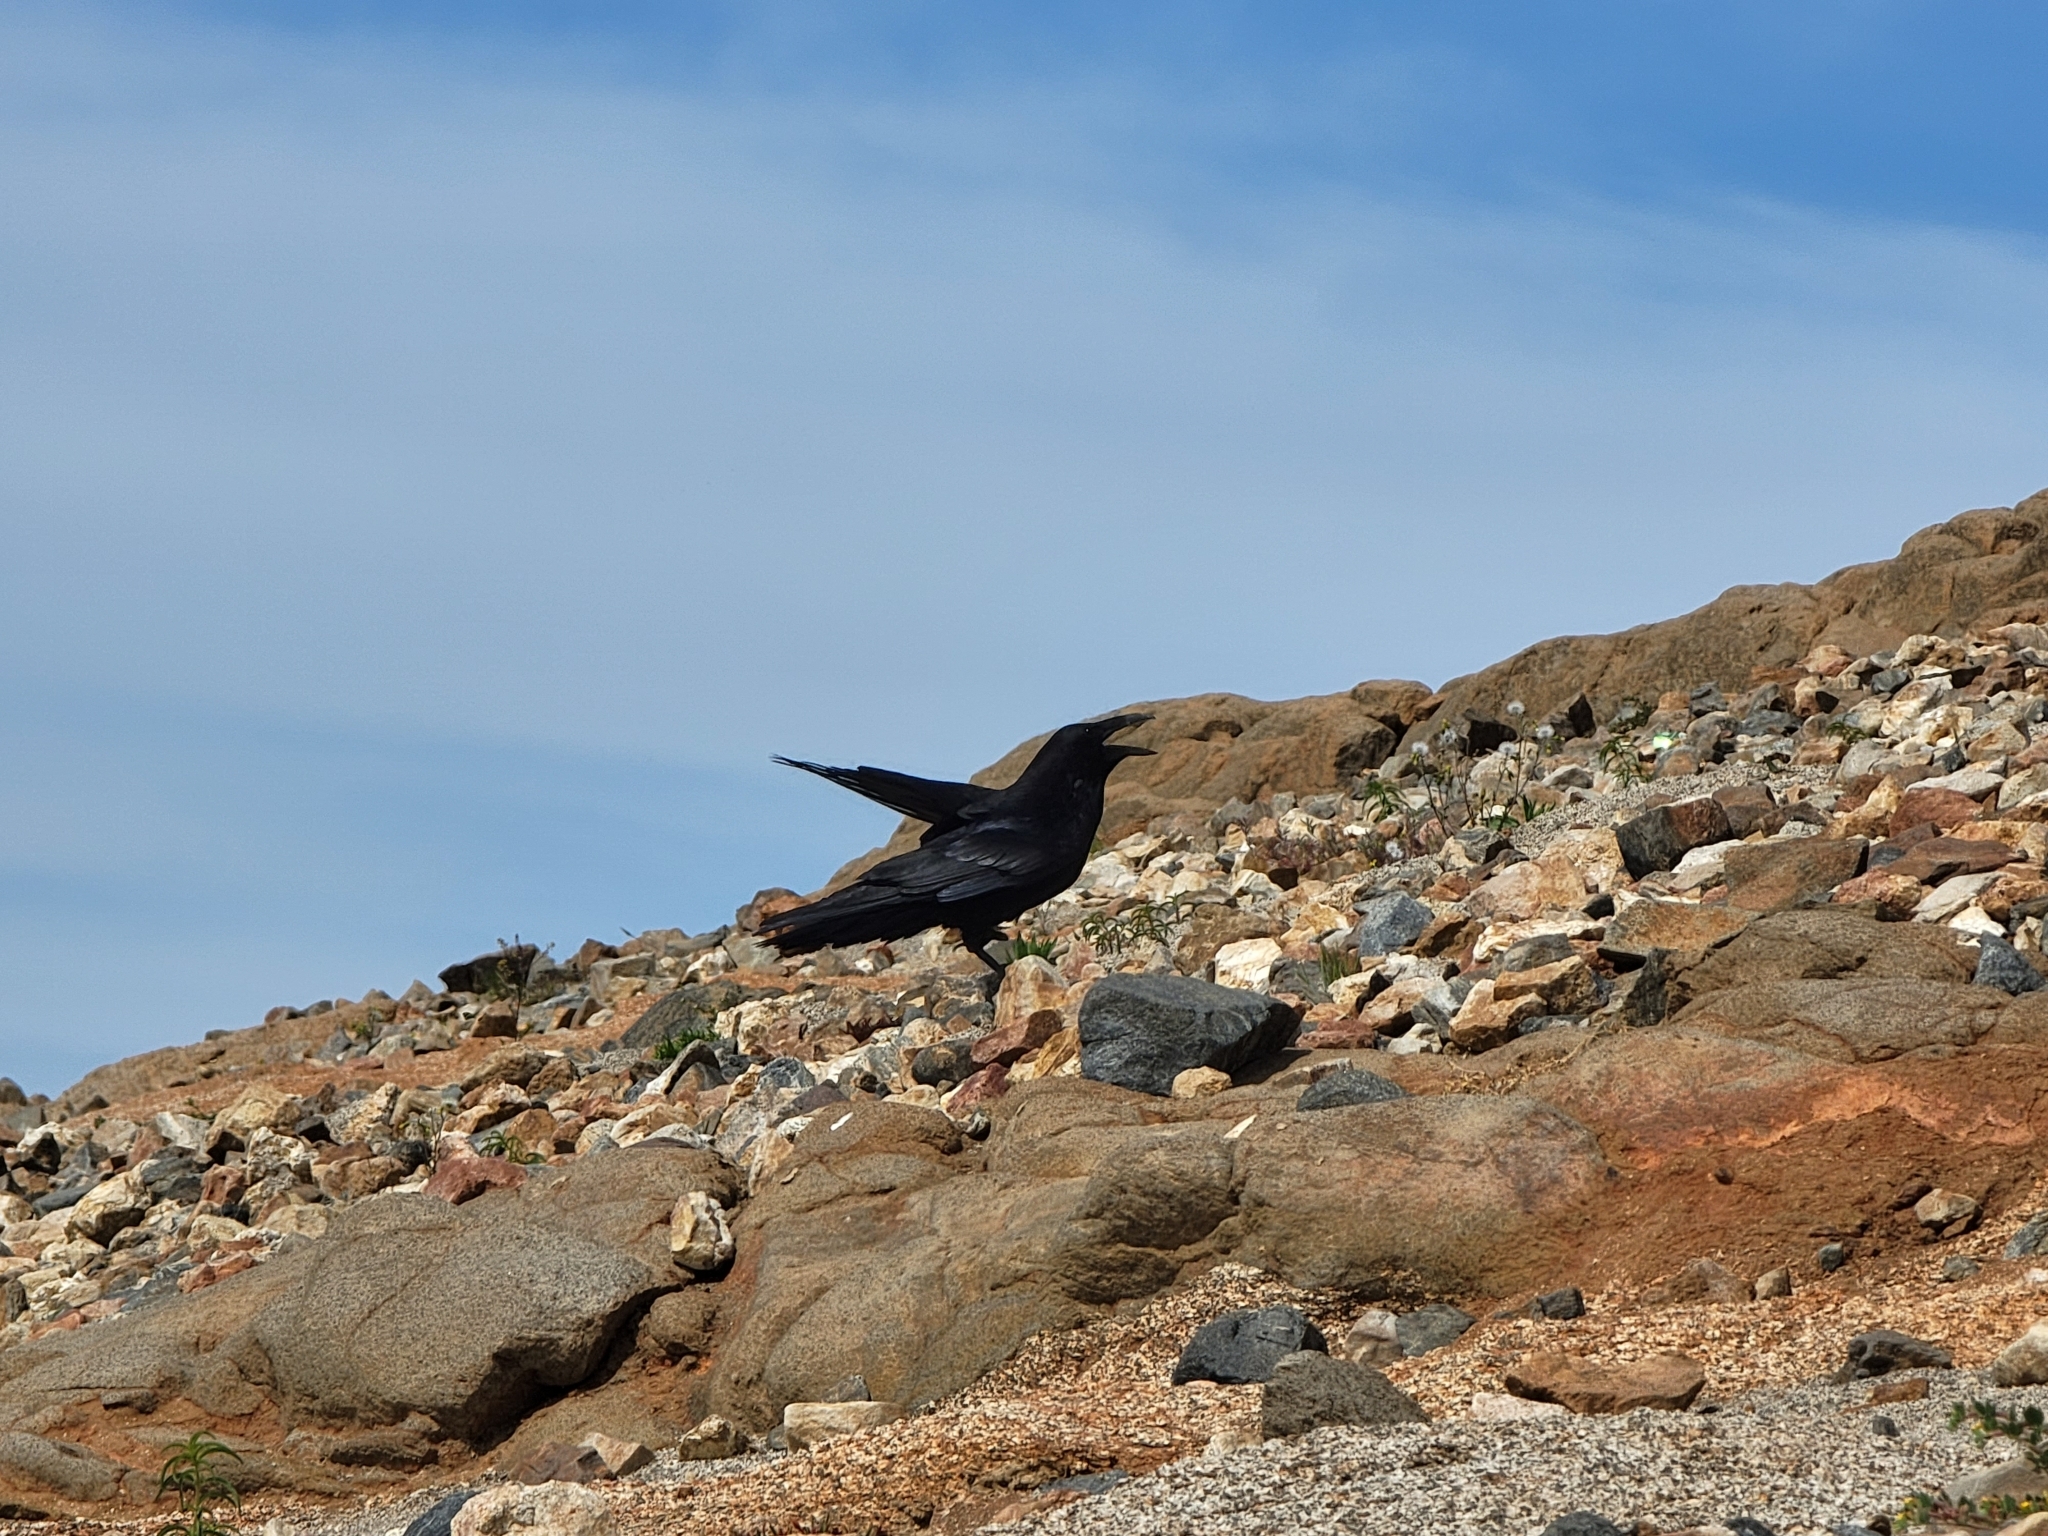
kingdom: Animalia
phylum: Chordata
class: Aves
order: Passeriformes
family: Corvidae
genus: Corvus
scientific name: Corvus corax
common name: Common raven
